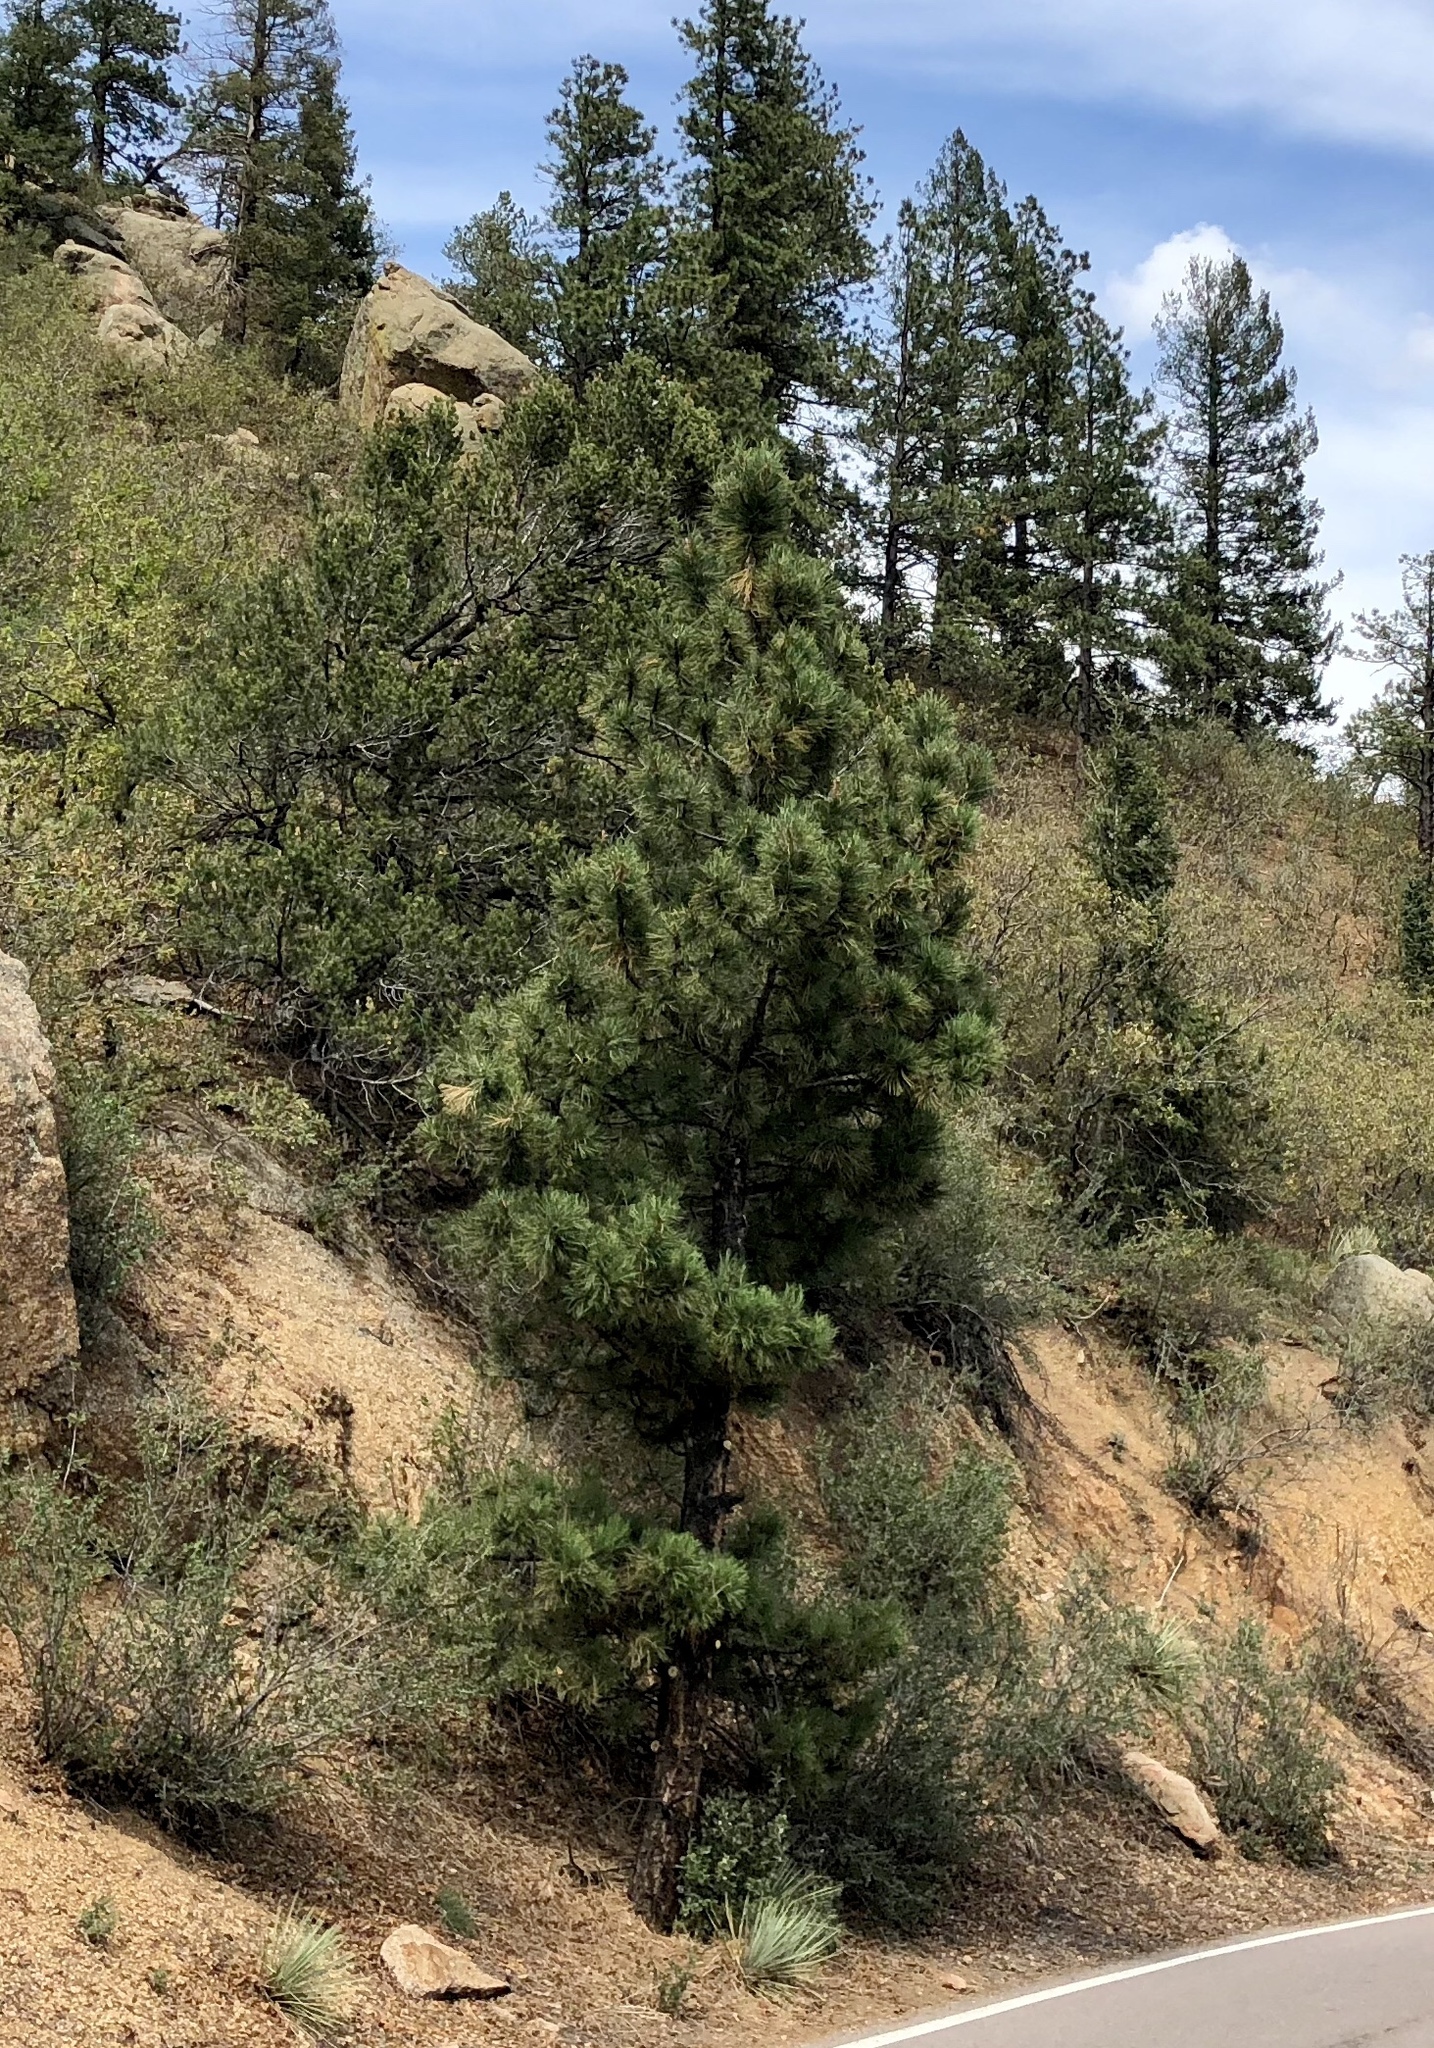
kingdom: Plantae
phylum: Tracheophyta
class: Pinopsida
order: Pinales
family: Pinaceae
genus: Pinus
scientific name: Pinus ponderosa
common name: Western yellow-pine
